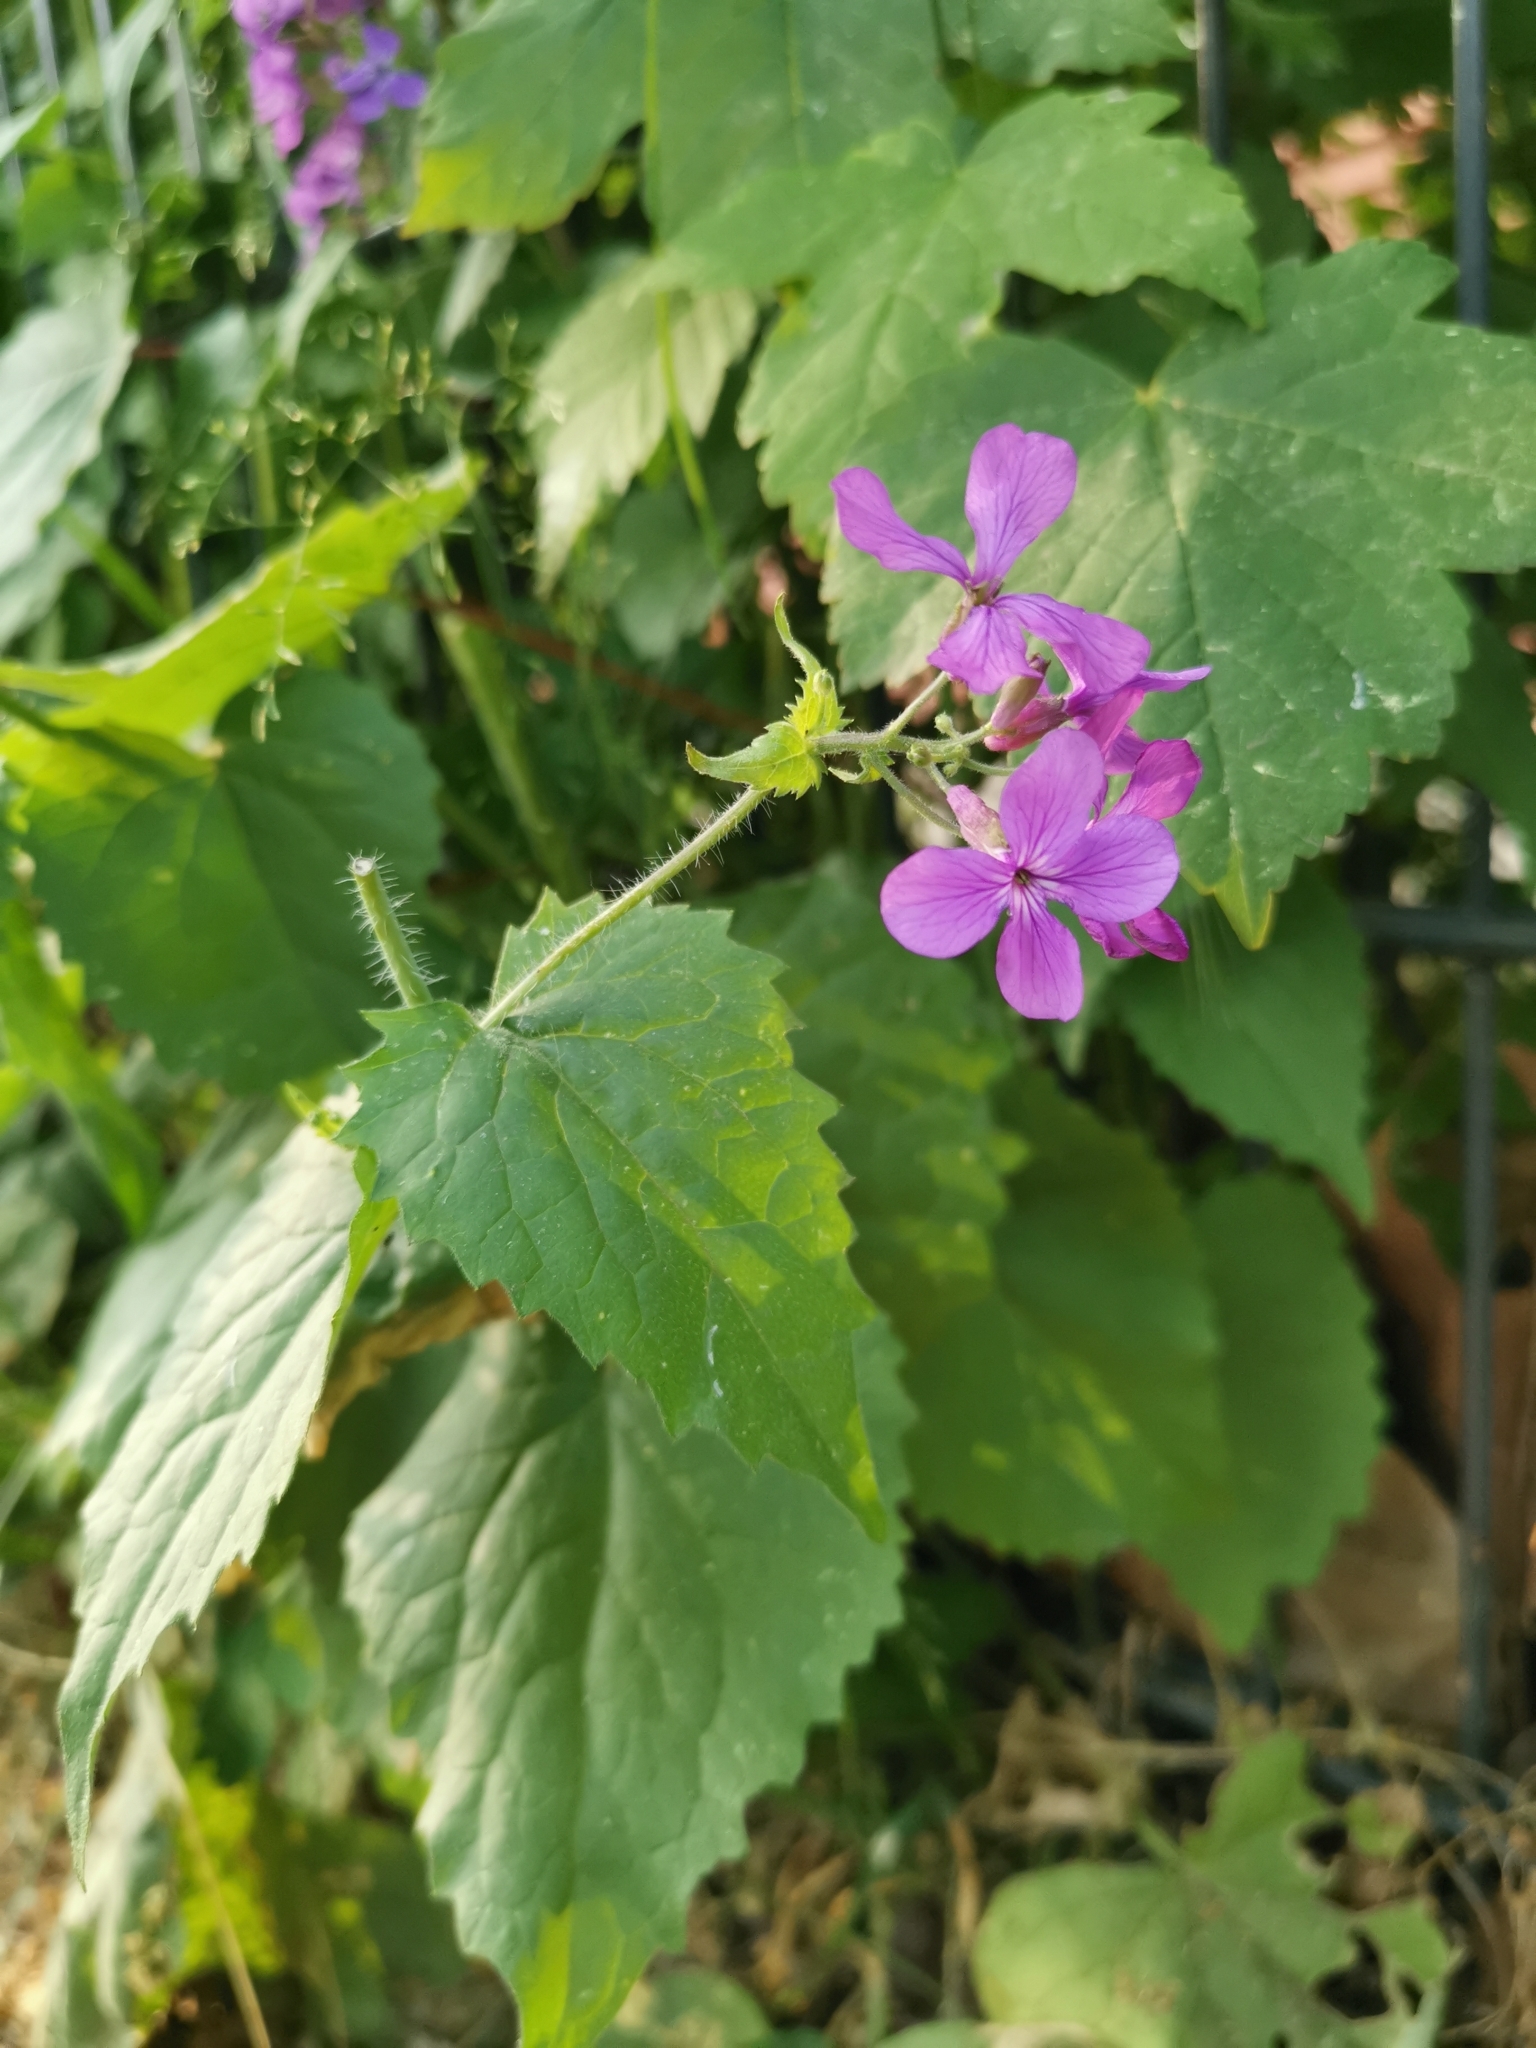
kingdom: Plantae
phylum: Tracheophyta
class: Magnoliopsida
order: Brassicales
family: Brassicaceae
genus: Lunaria
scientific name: Lunaria annua
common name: Honesty
